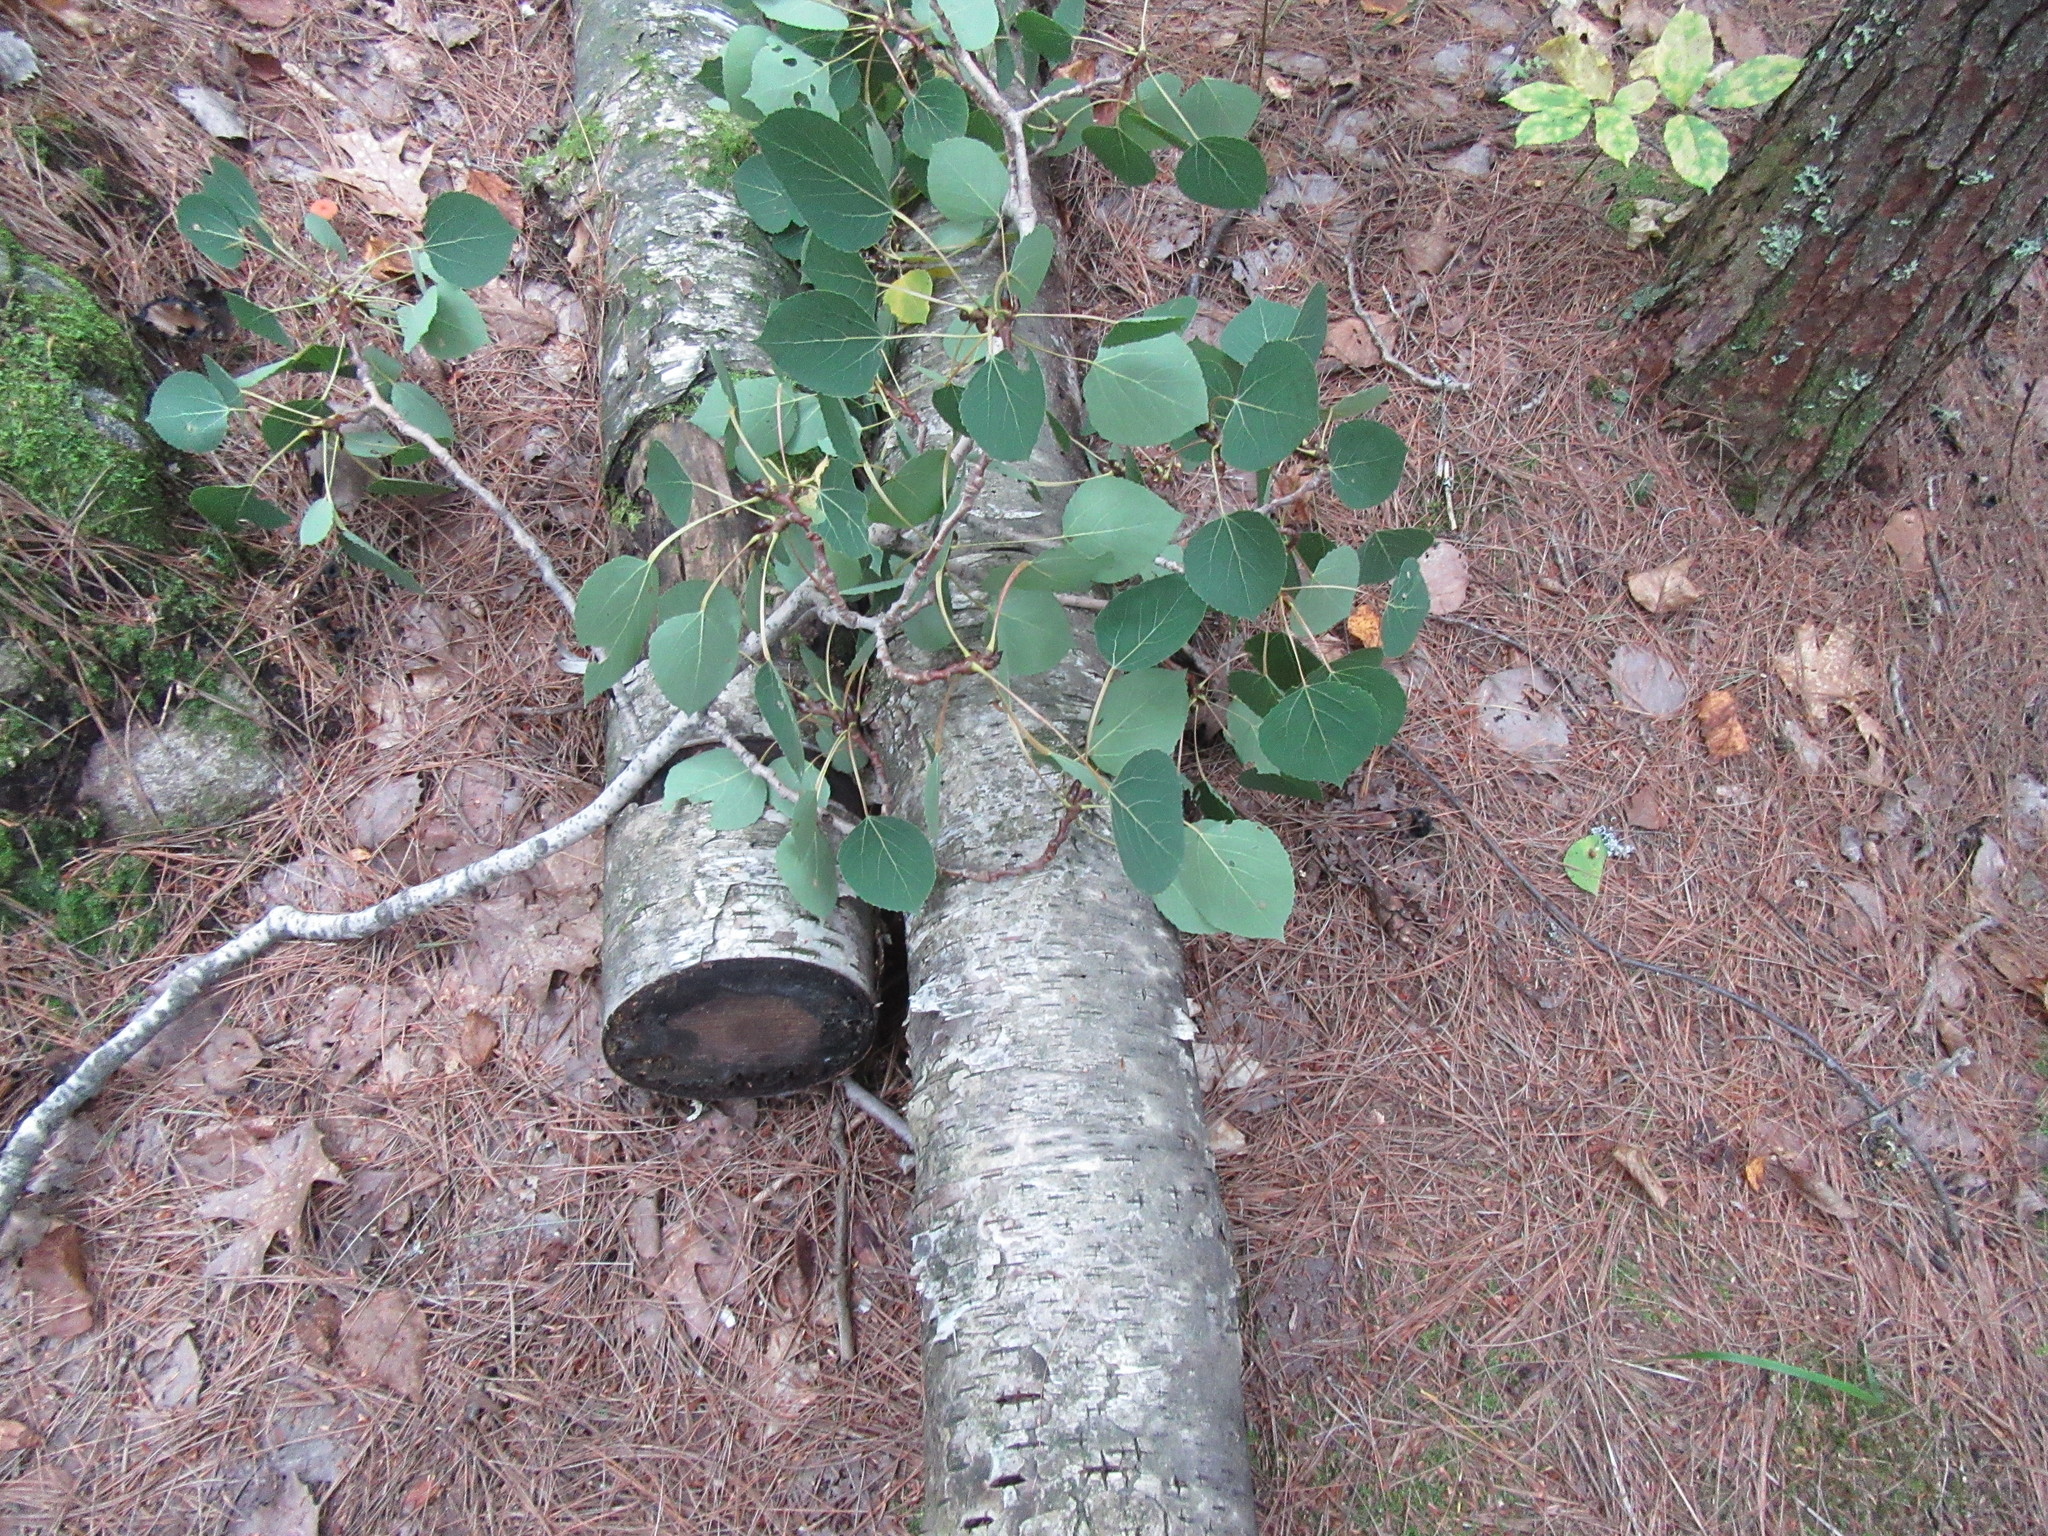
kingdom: Plantae
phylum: Tracheophyta
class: Magnoliopsida
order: Malpighiales
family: Salicaceae
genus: Populus
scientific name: Populus tremuloides
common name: Quaking aspen
